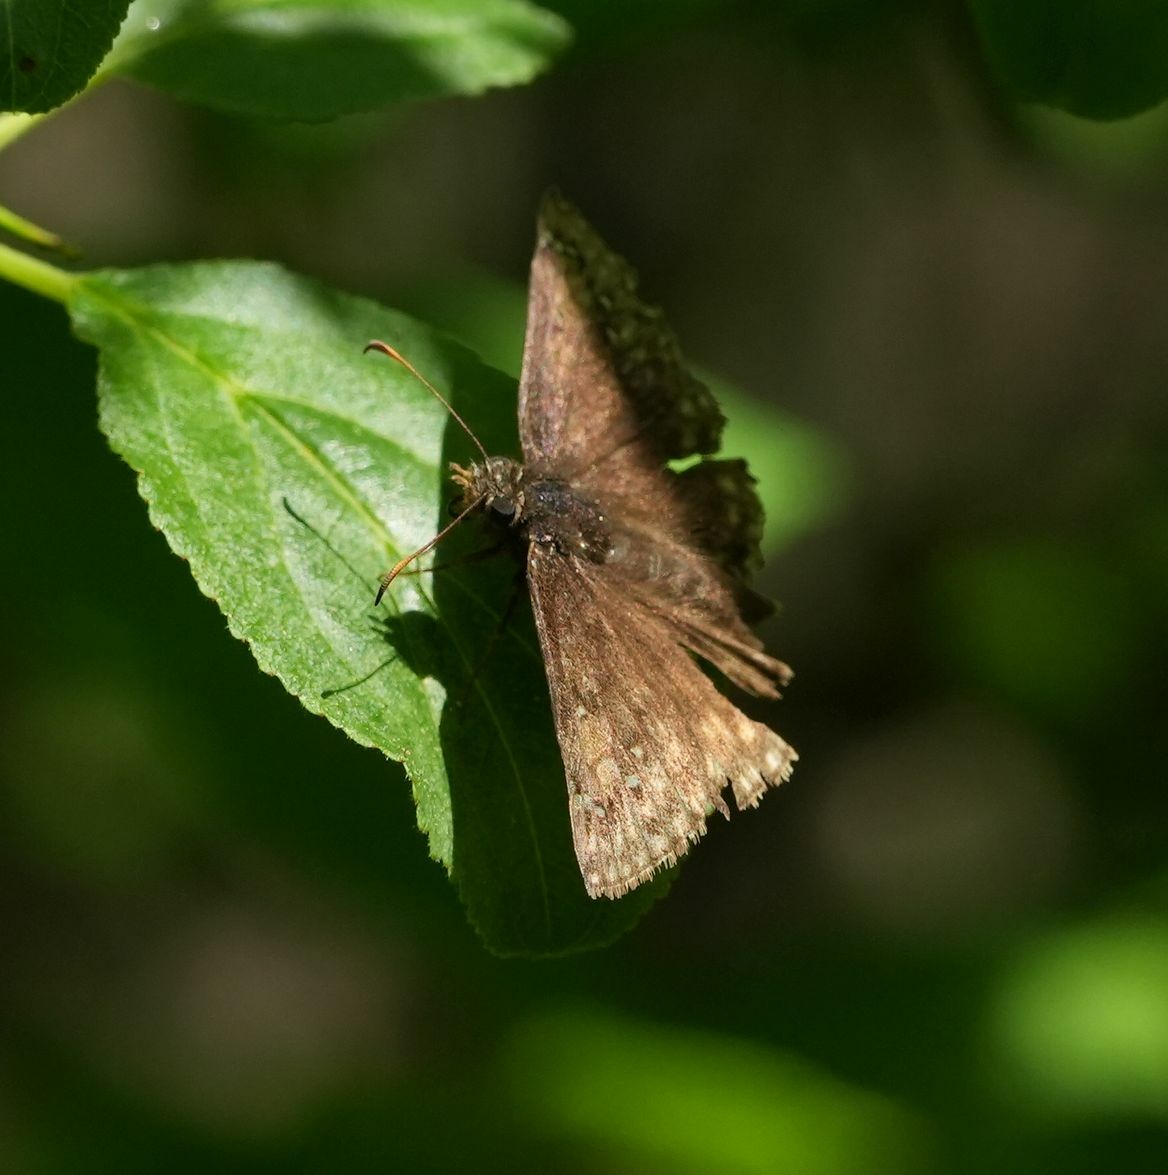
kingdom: Animalia
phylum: Arthropoda
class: Insecta
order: Lepidoptera
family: Hesperiidae
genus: Erynnis
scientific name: Erynnis juvenalis
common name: Juvenal's duskywing
